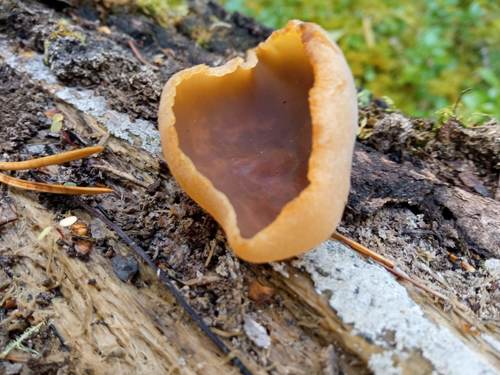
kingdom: Fungi
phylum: Ascomycota
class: Pezizomycetes
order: Pezizales
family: Pezizaceae
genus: Peziza
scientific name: Peziza varia
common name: Layered cup
